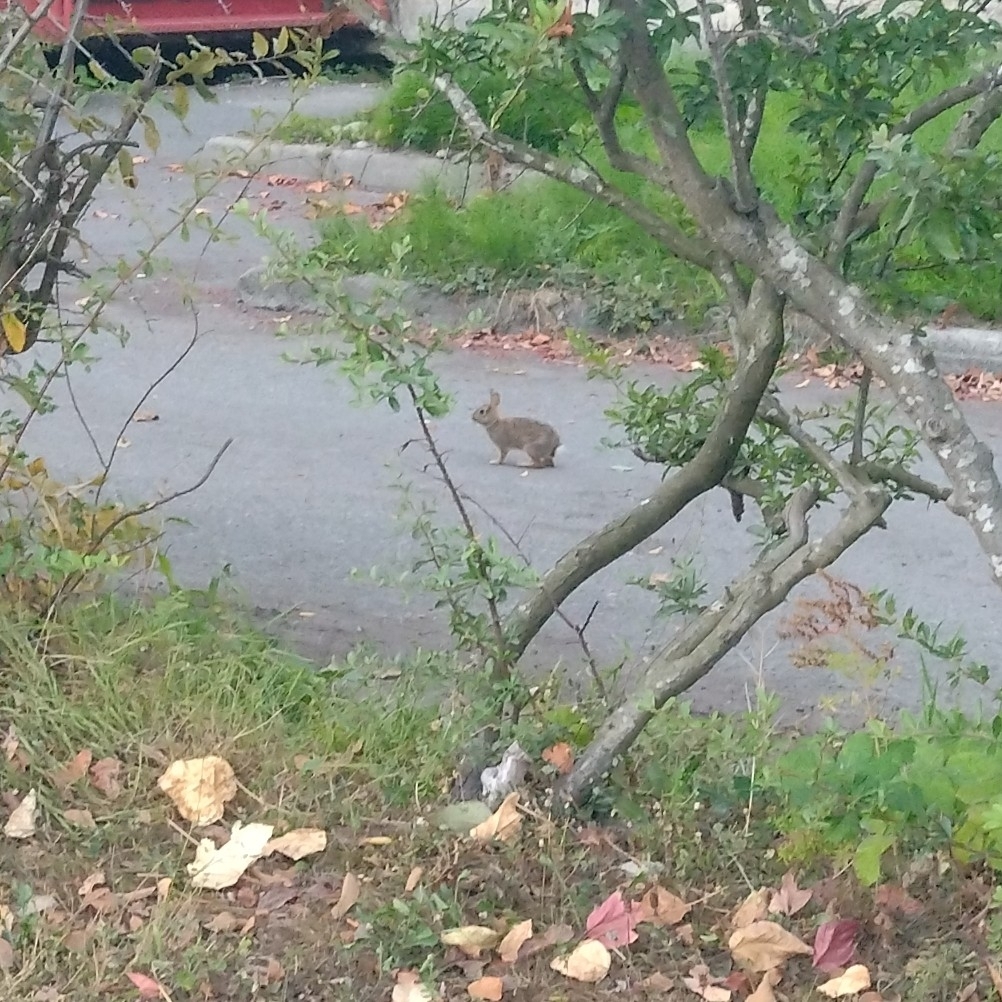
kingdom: Animalia
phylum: Chordata
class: Mammalia
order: Lagomorpha
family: Leporidae
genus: Sylvilagus
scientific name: Sylvilagus floridanus
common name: Eastern cottontail
